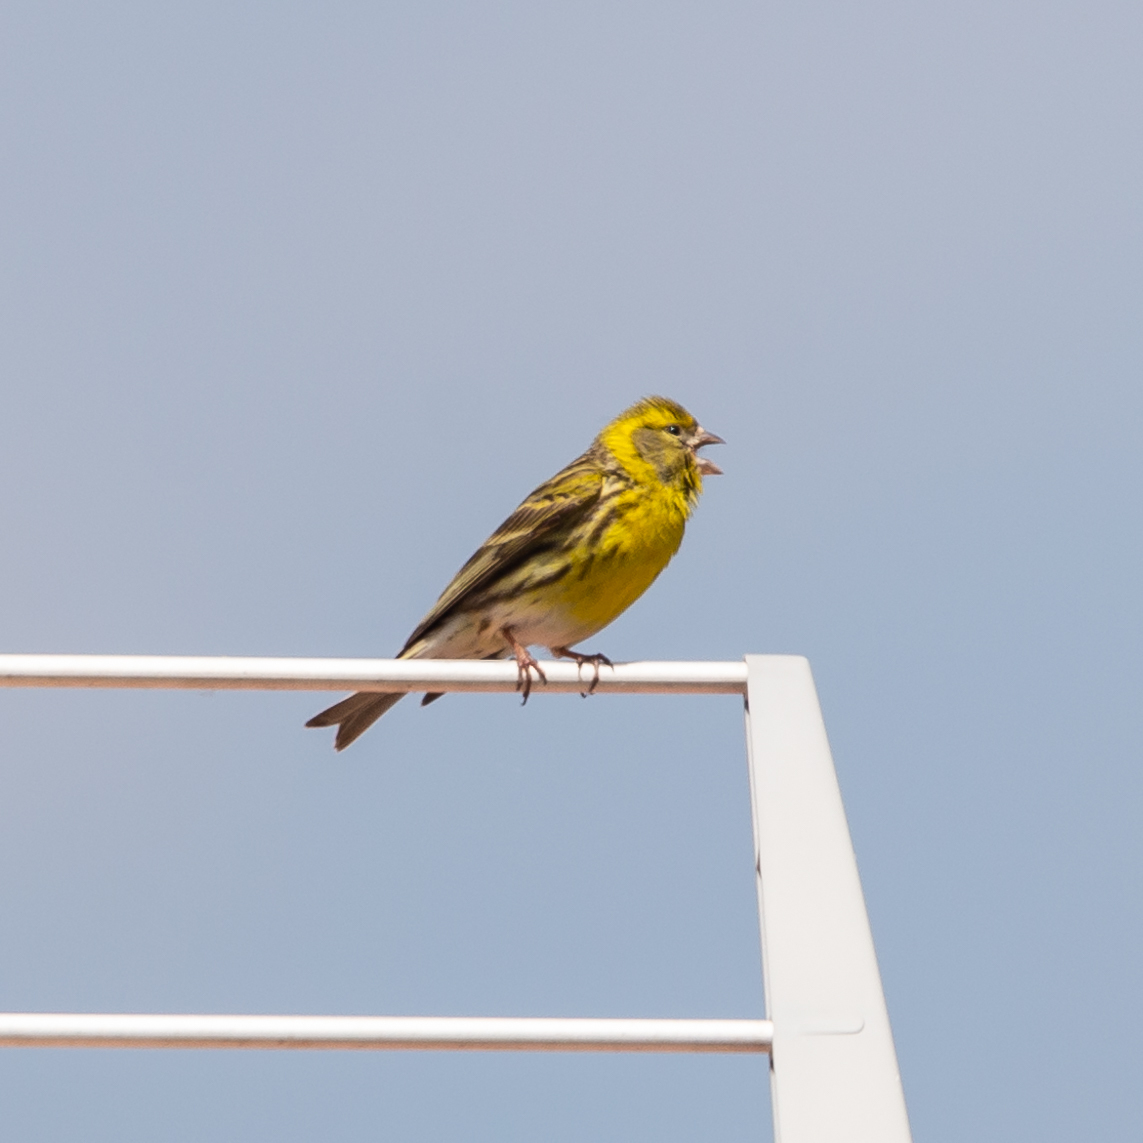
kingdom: Animalia
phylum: Chordata
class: Aves
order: Passeriformes
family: Fringillidae
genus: Serinus
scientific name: Serinus serinus
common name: European serin
